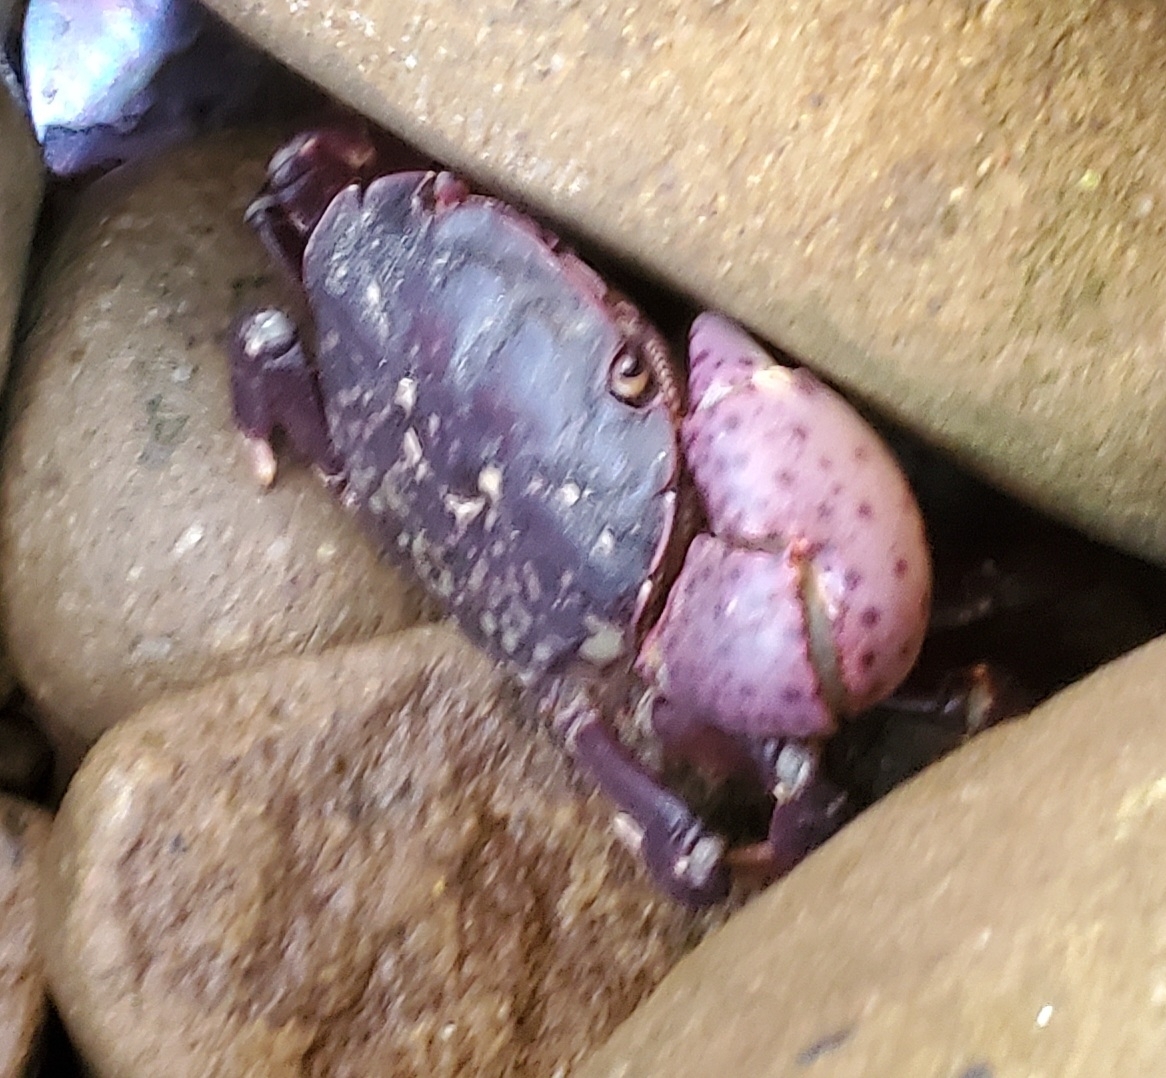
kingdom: Animalia
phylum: Arthropoda
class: Malacostraca
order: Decapoda
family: Varunidae
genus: Hemigrapsus
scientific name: Hemigrapsus nudus
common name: Purple shore crab
